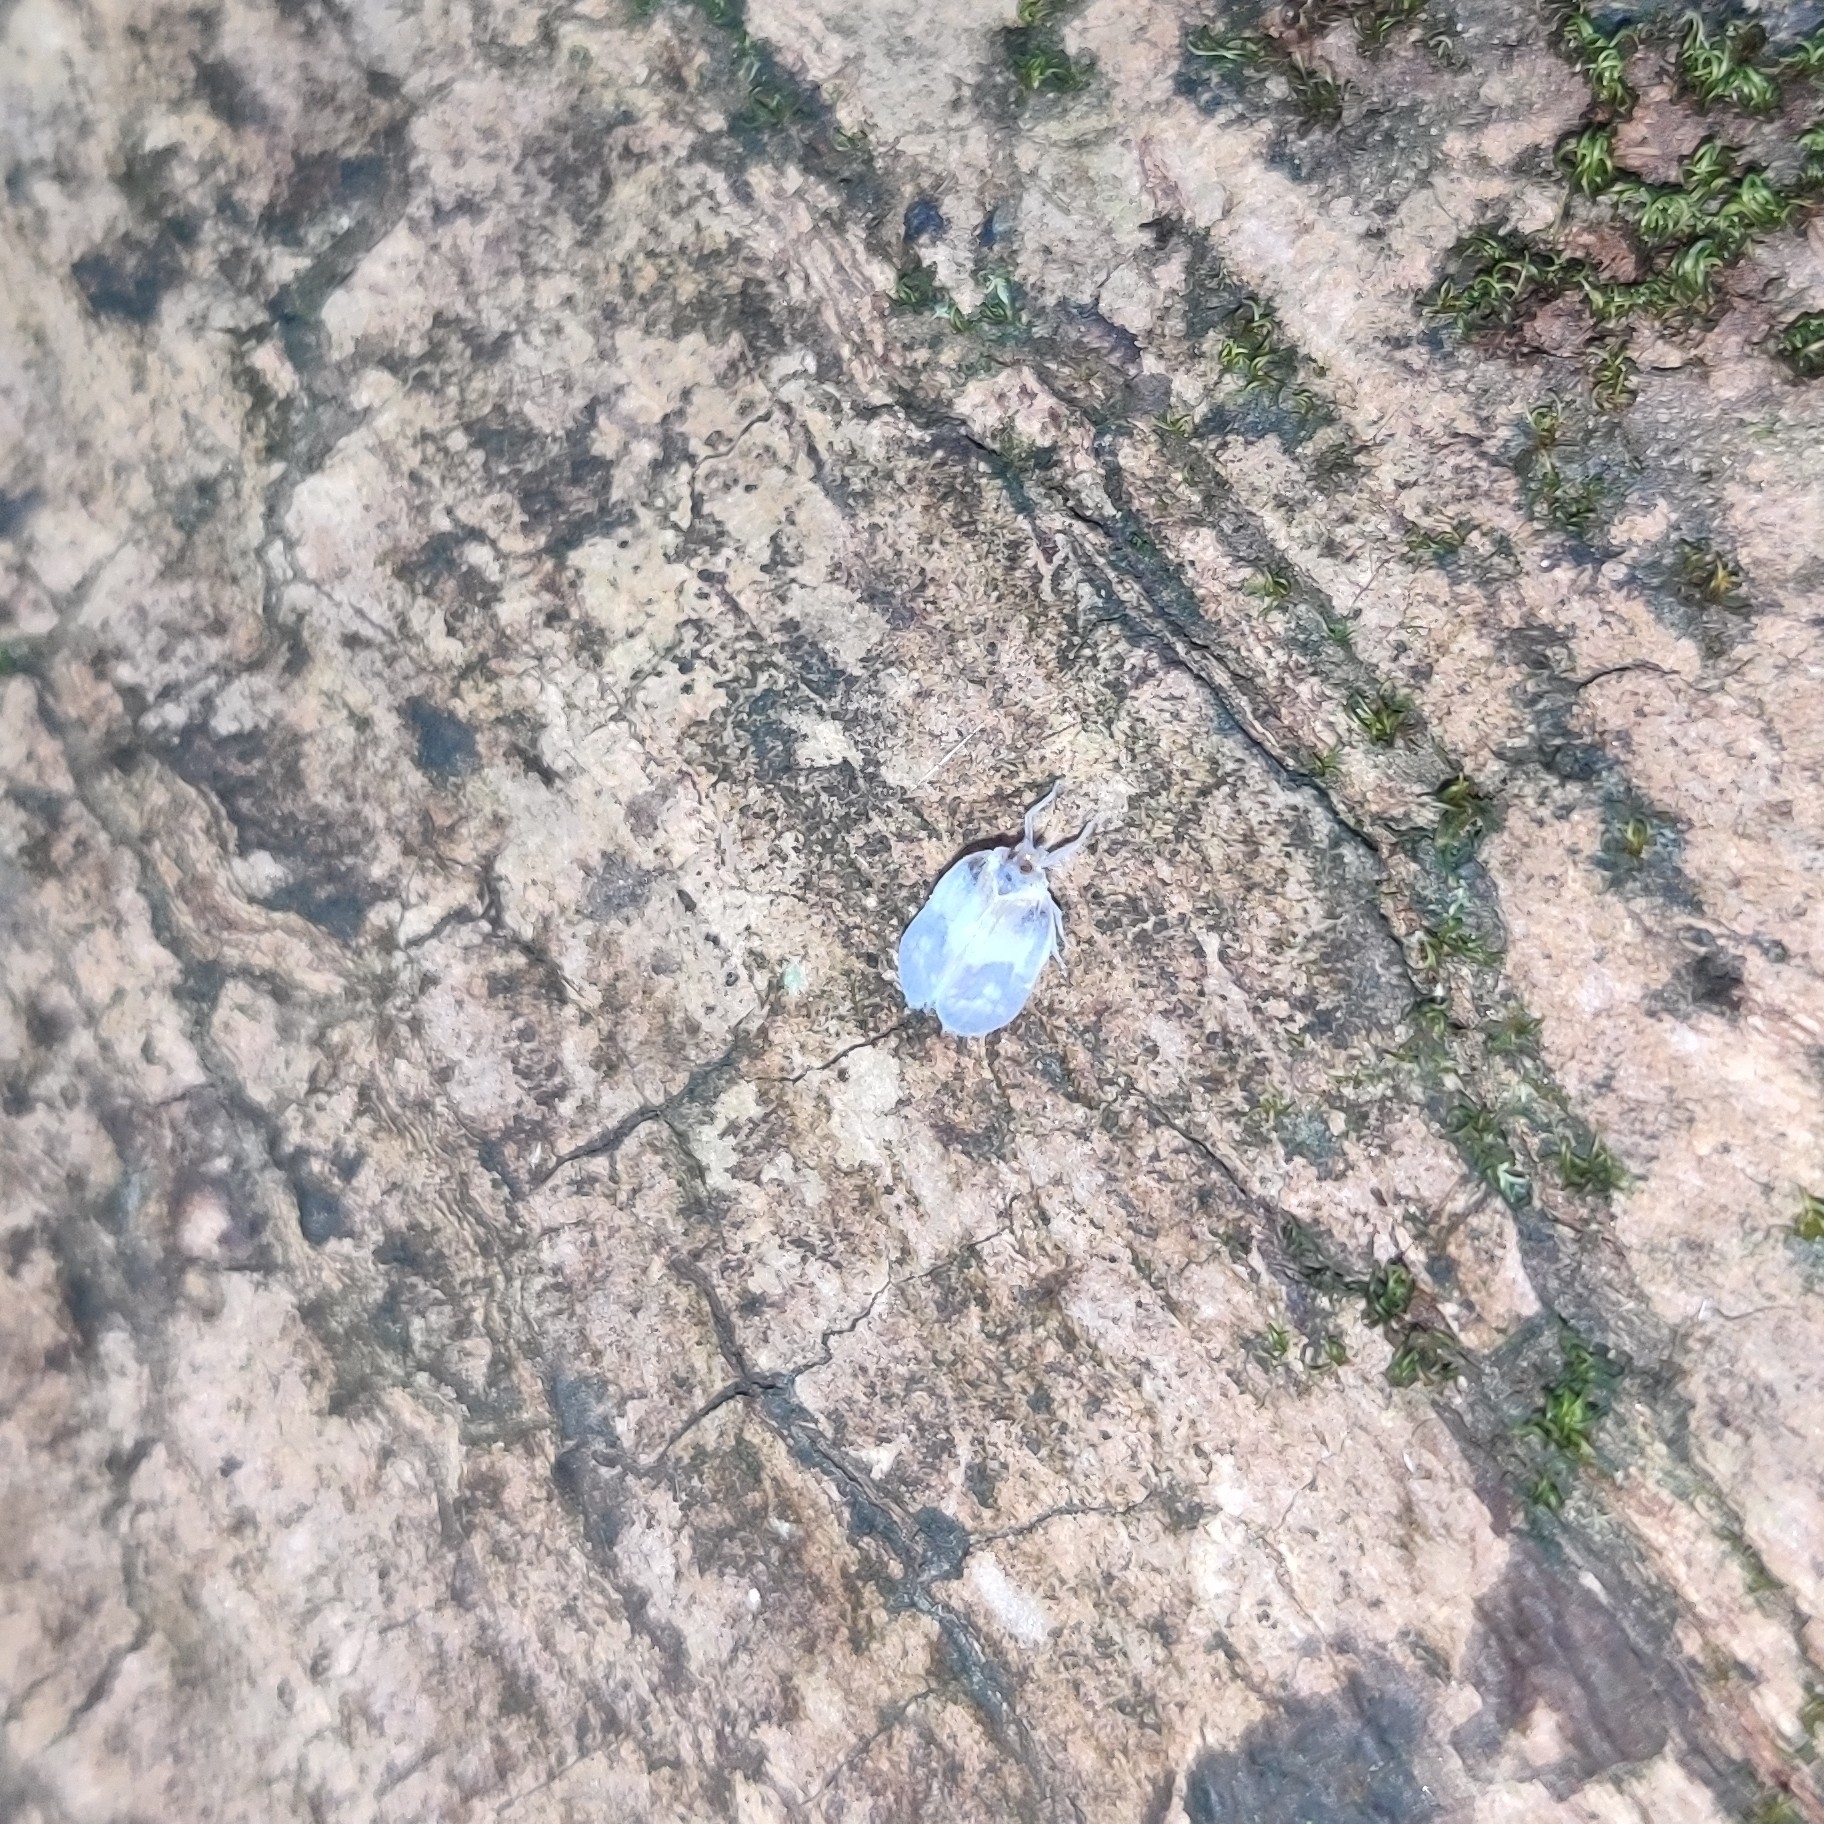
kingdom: Animalia
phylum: Arthropoda
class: Insecta
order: Hemiptera
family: Kinnaridae
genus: Kinnara
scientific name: Kinnara maculata
